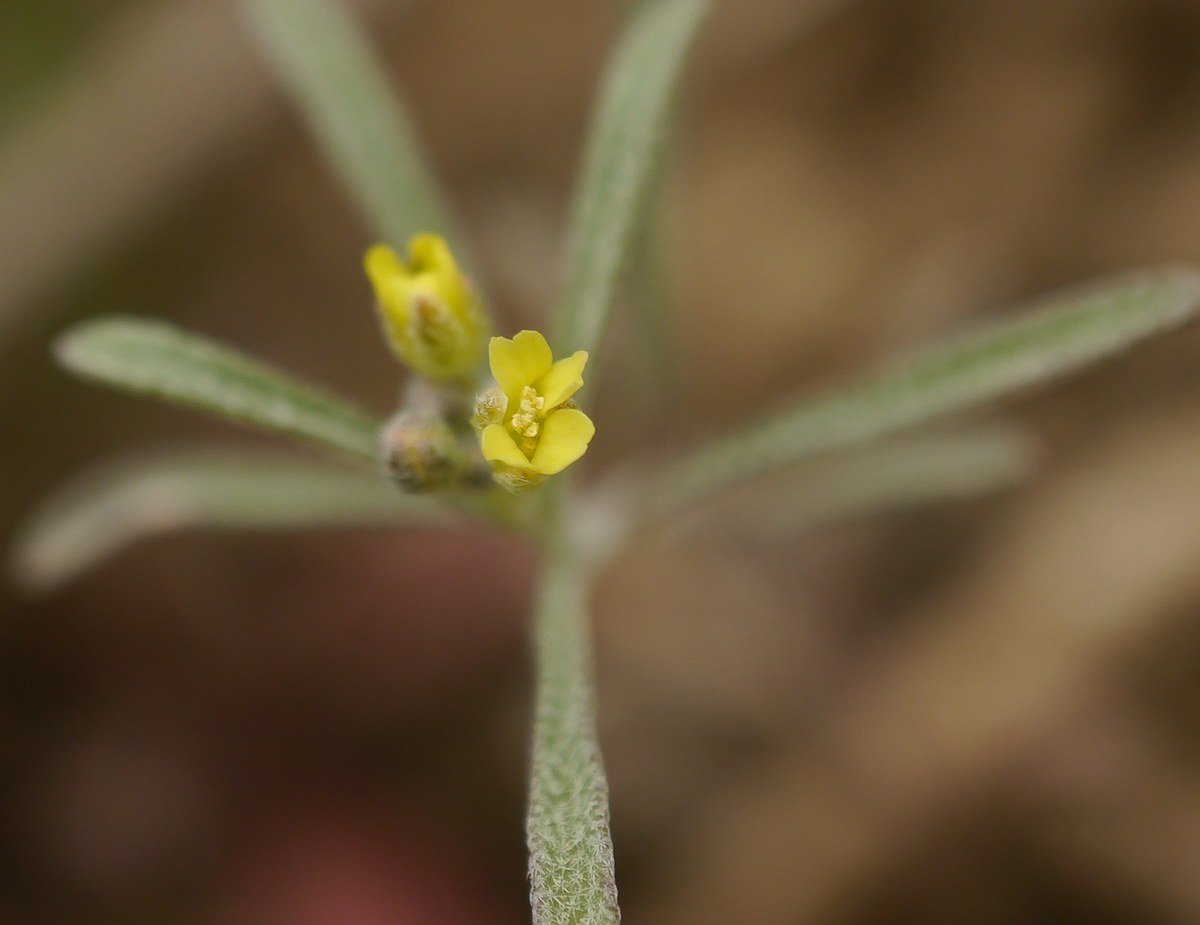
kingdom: Plantae
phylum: Tracheophyta
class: Magnoliopsida
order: Brassicales
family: Brassicaceae
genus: Meniocus
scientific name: Meniocus linifolius
